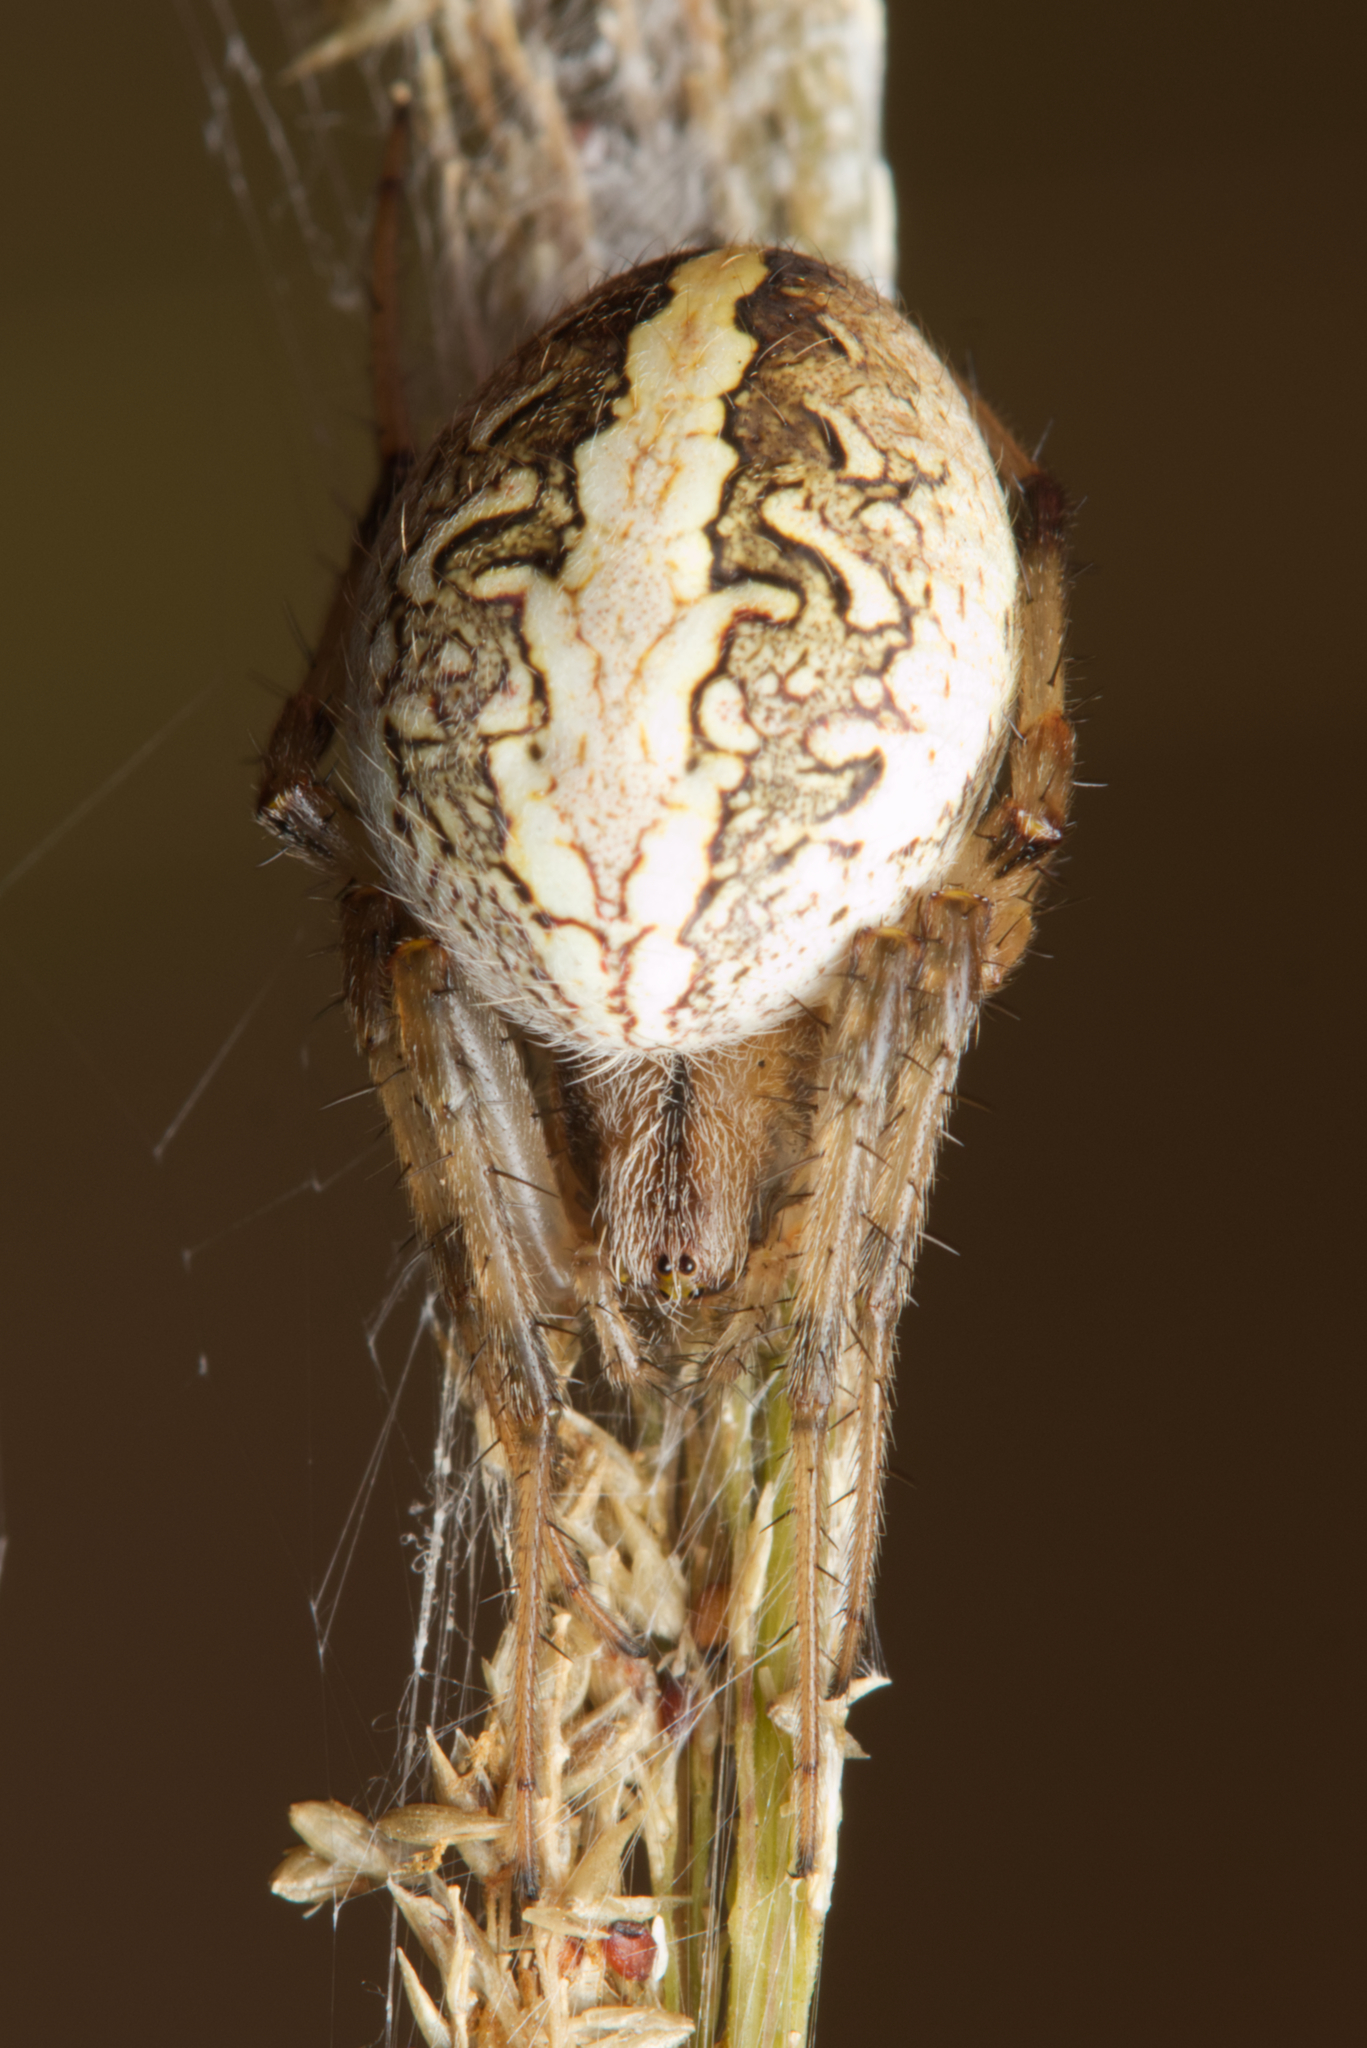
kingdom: Animalia
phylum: Arthropoda
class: Arachnida
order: Araneae
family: Araneidae
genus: Neoscona
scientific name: Neoscona theisi
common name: Spider
